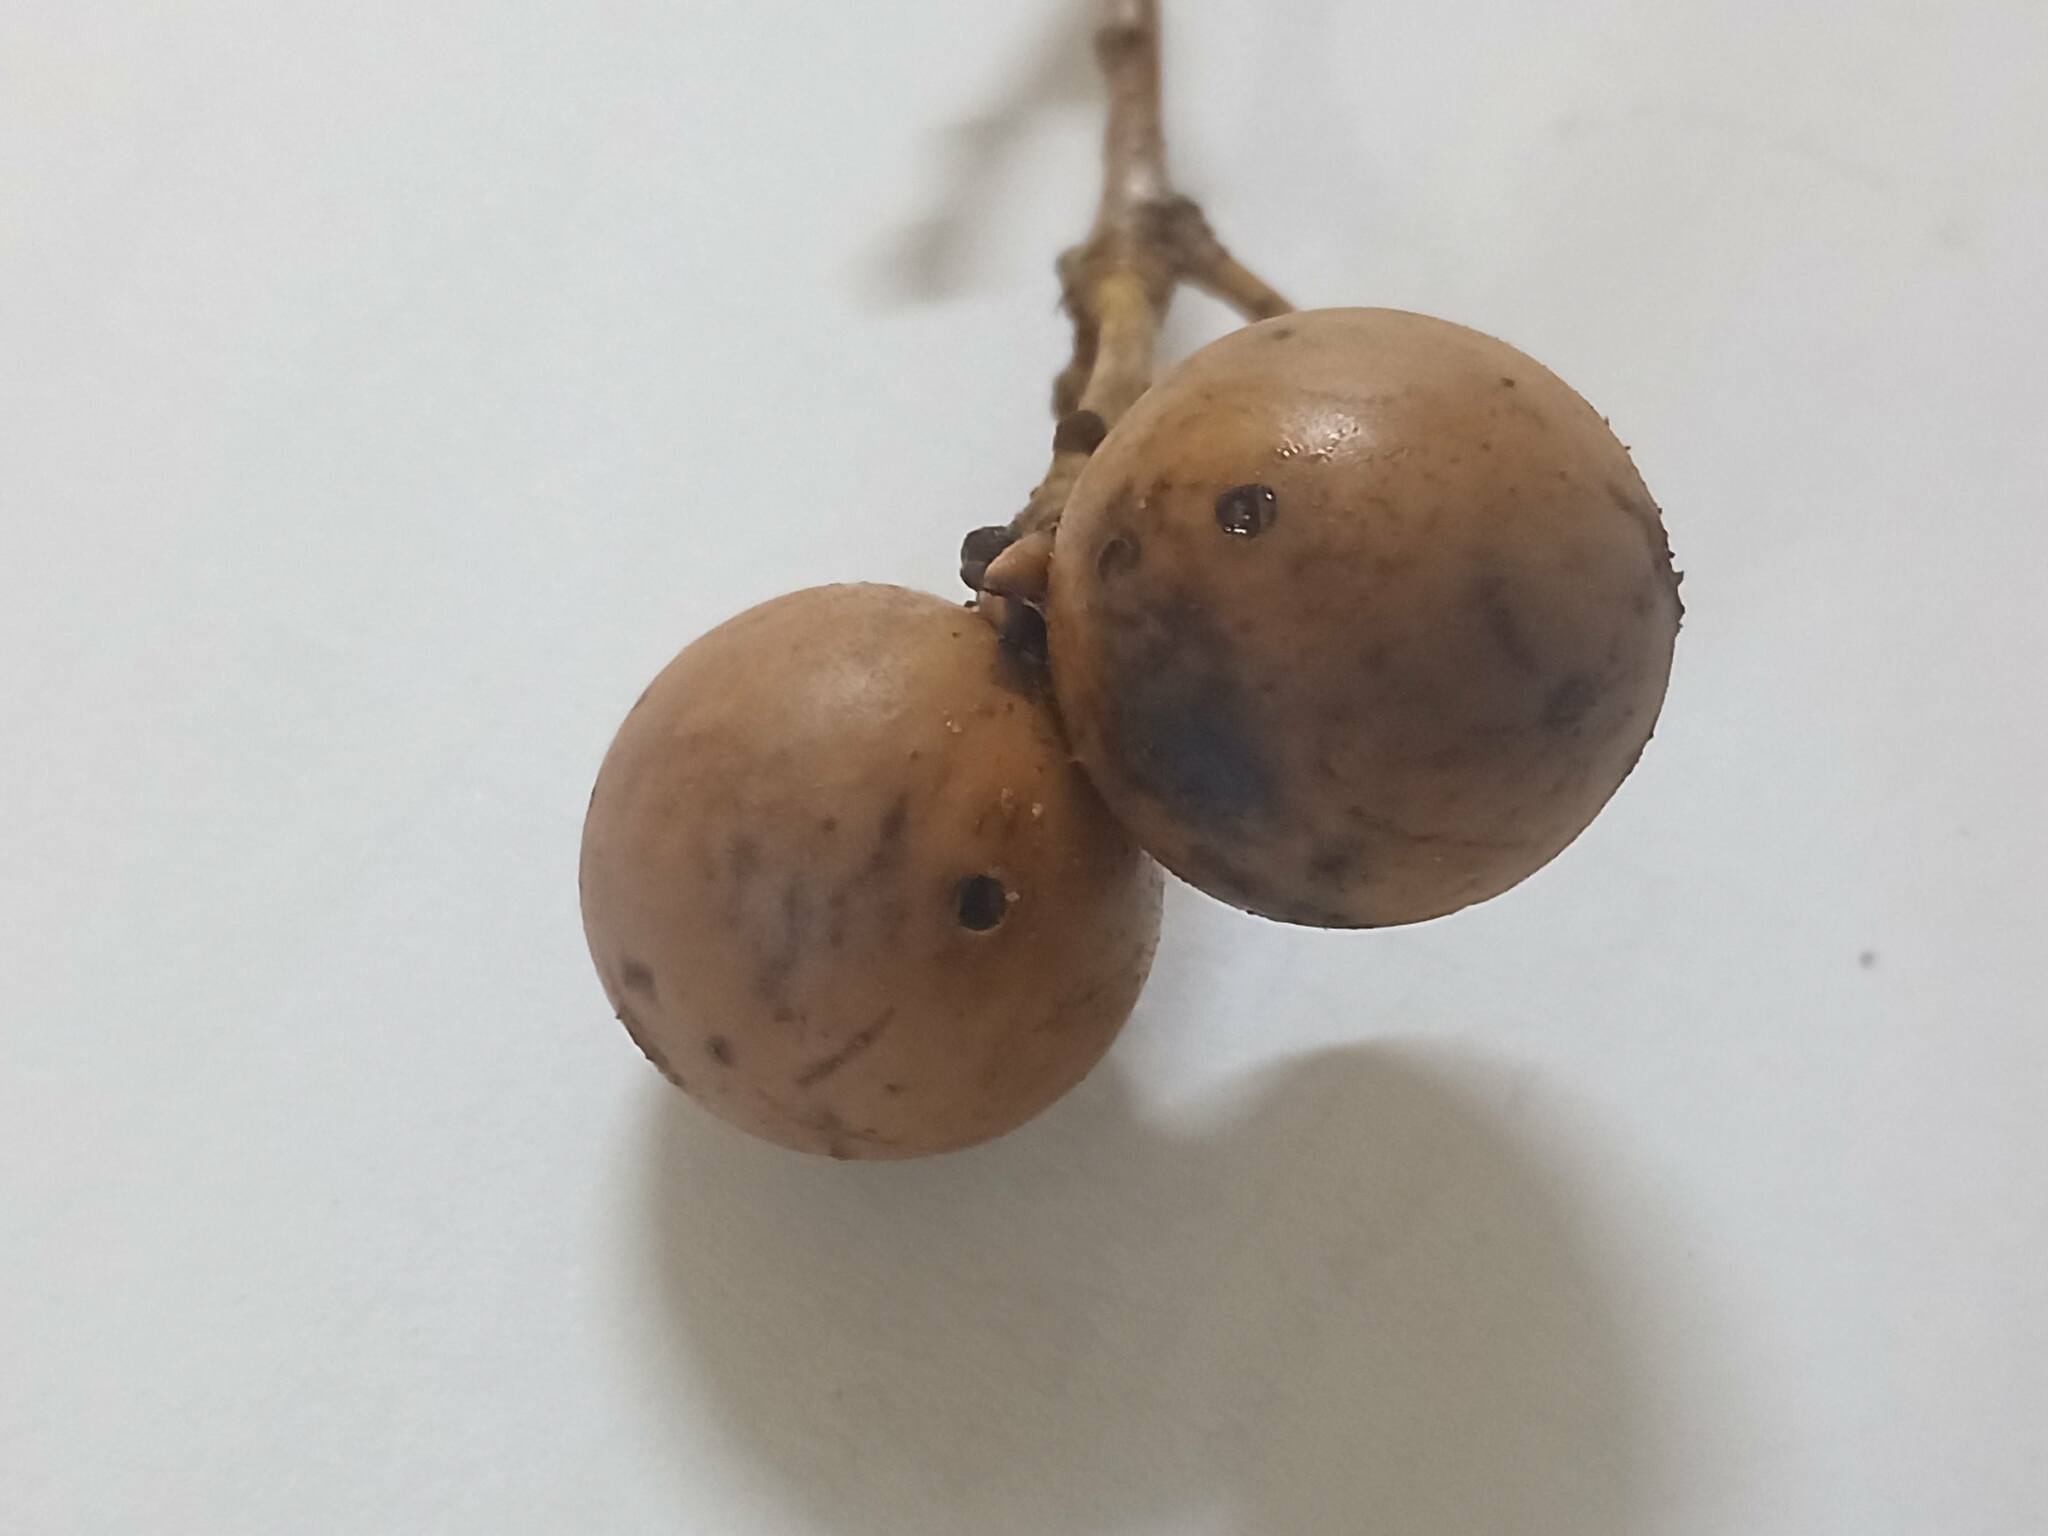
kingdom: Animalia
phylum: Arthropoda
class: Insecta
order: Hymenoptera
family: Cynipidae
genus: Andricus
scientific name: Andricus kollari
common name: Marble gall
